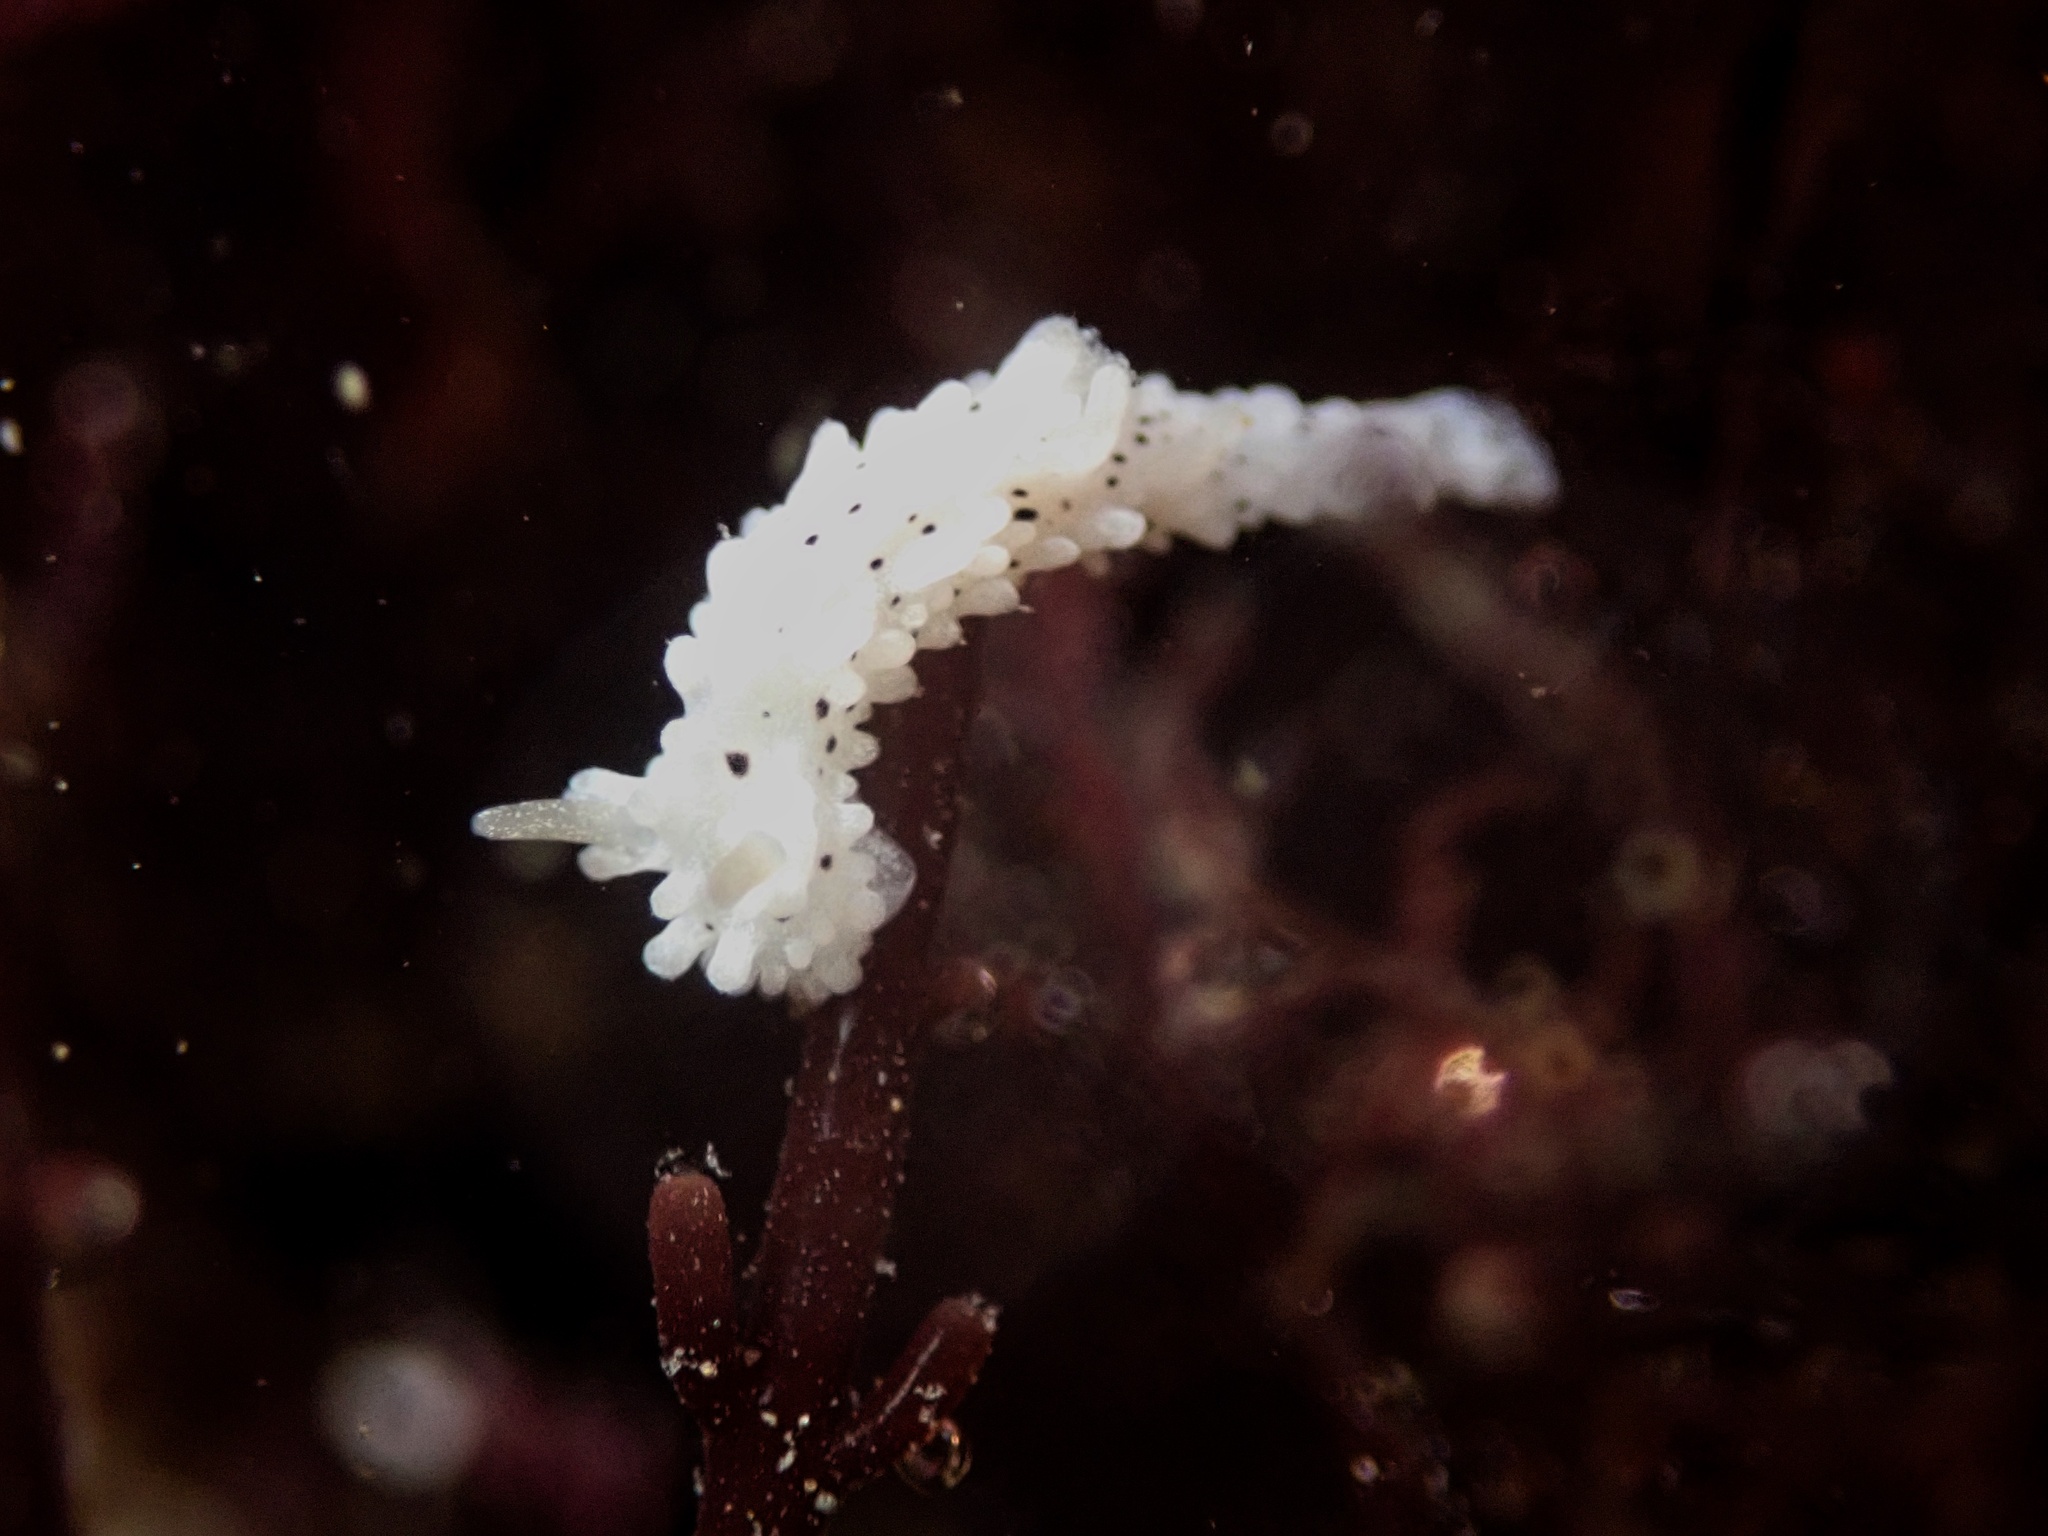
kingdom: Animalia
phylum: Mollusca
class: Gastropoda
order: Nudibranchia
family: Aegiridae
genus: Aegires
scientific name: Aegires albopunctatus
